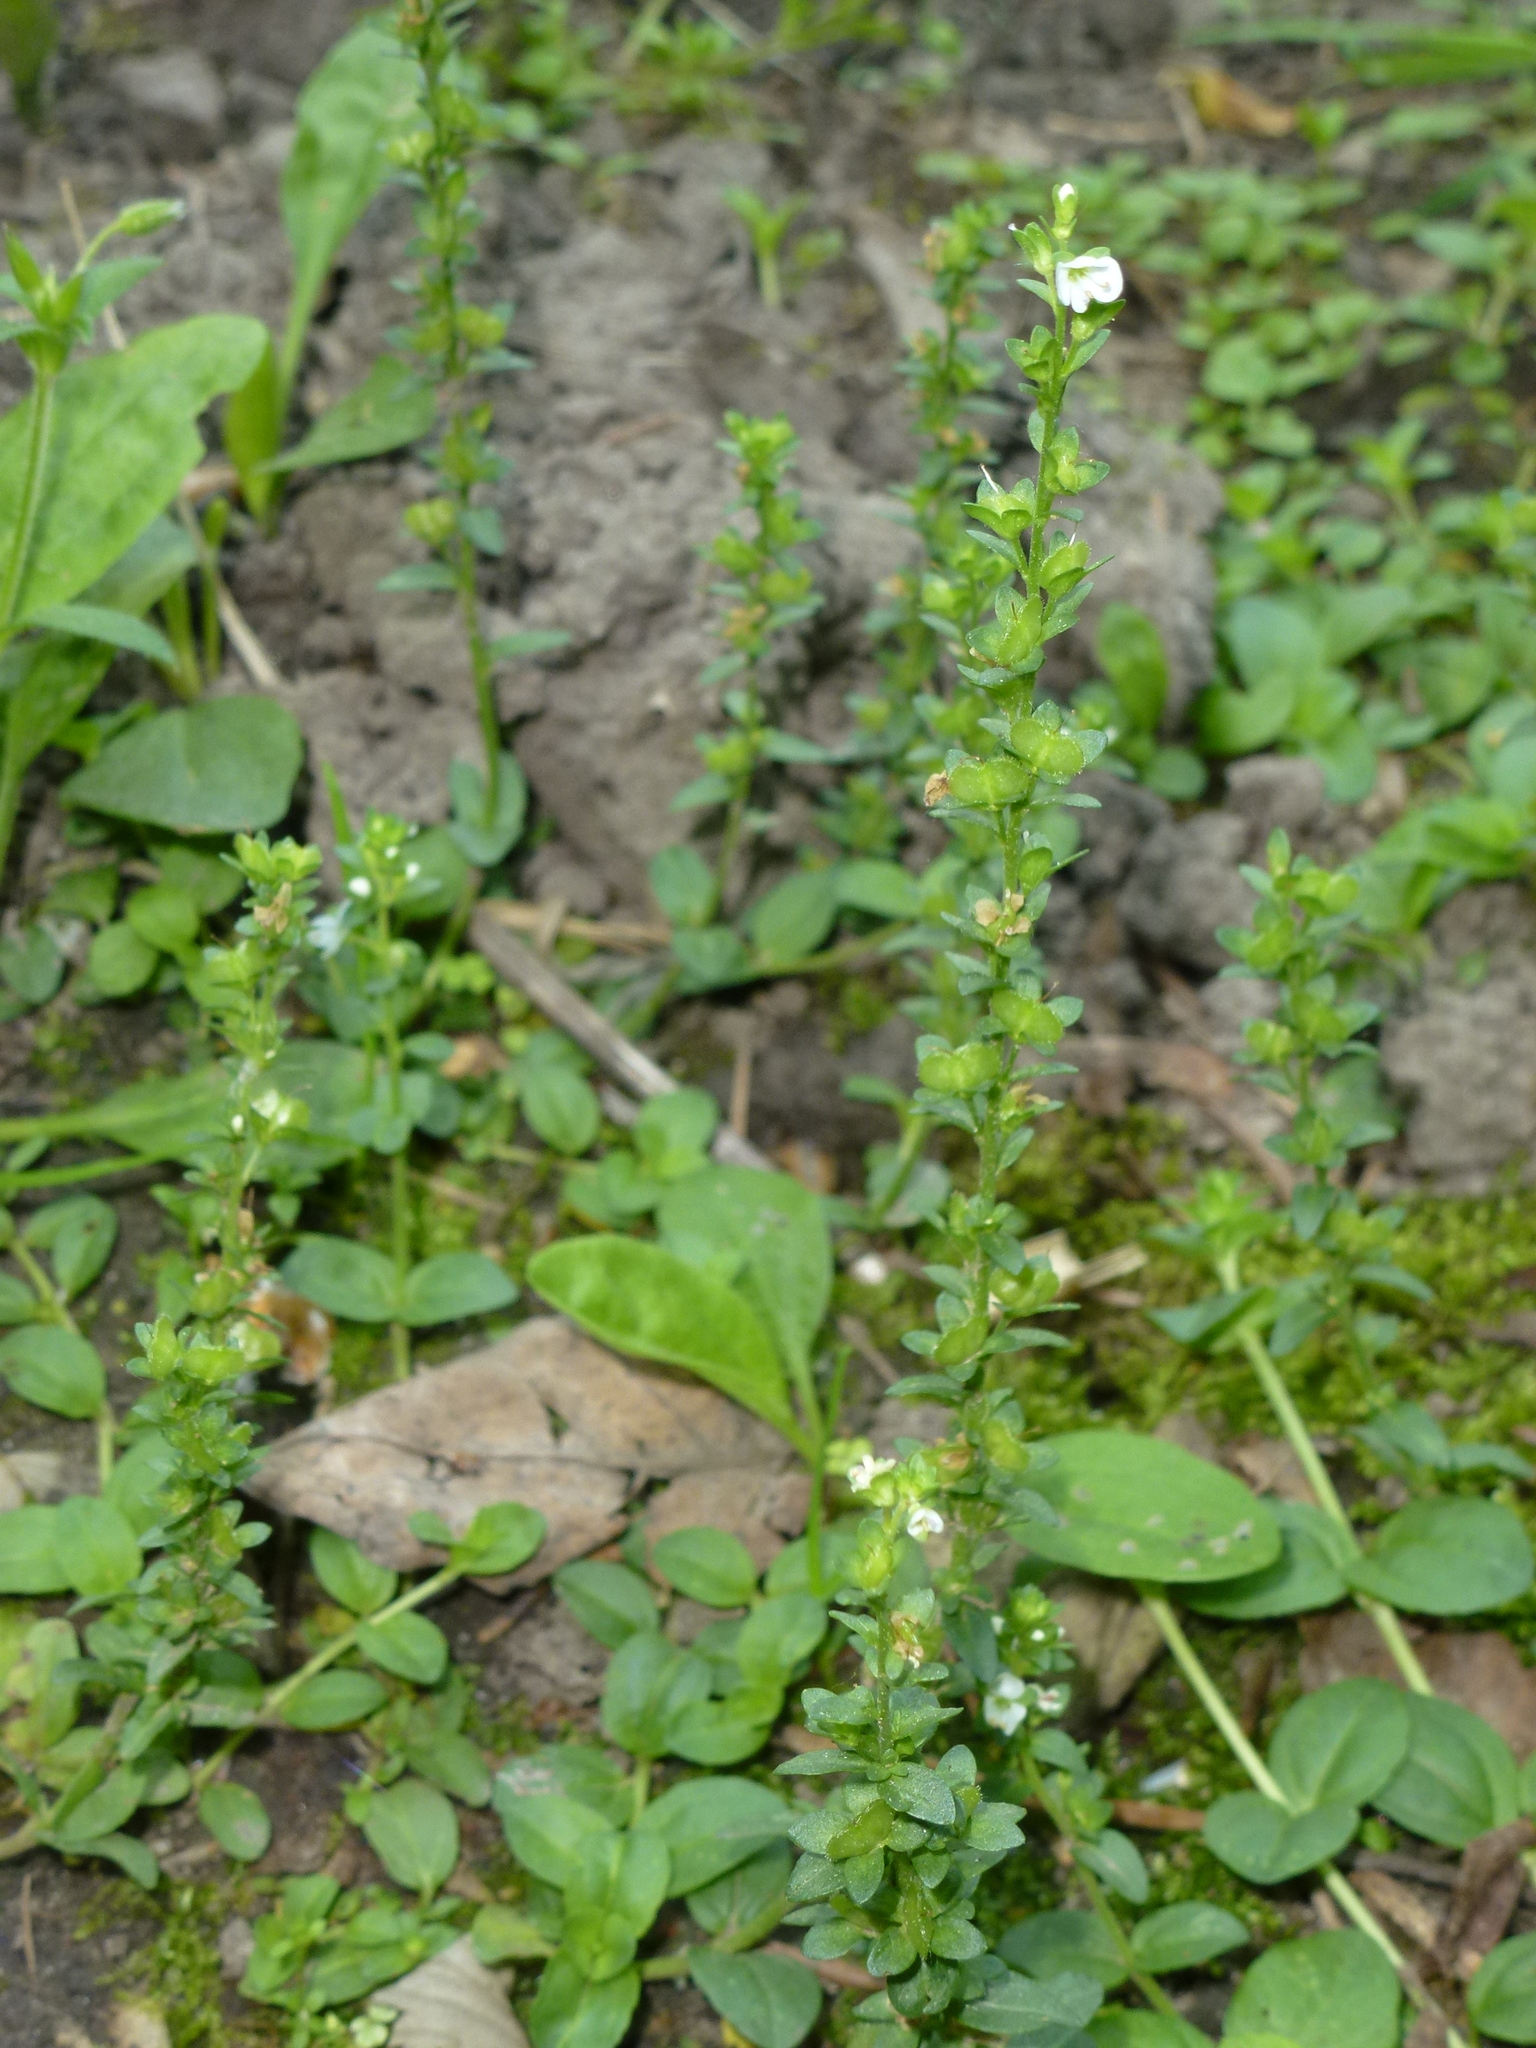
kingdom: Plantae
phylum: Tracheophyta
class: Magnoliopsida
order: Lamiales
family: Plantaginaceae
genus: Veronica
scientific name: Veronica serpyllifolia
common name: Thyme-leaved speedwell
